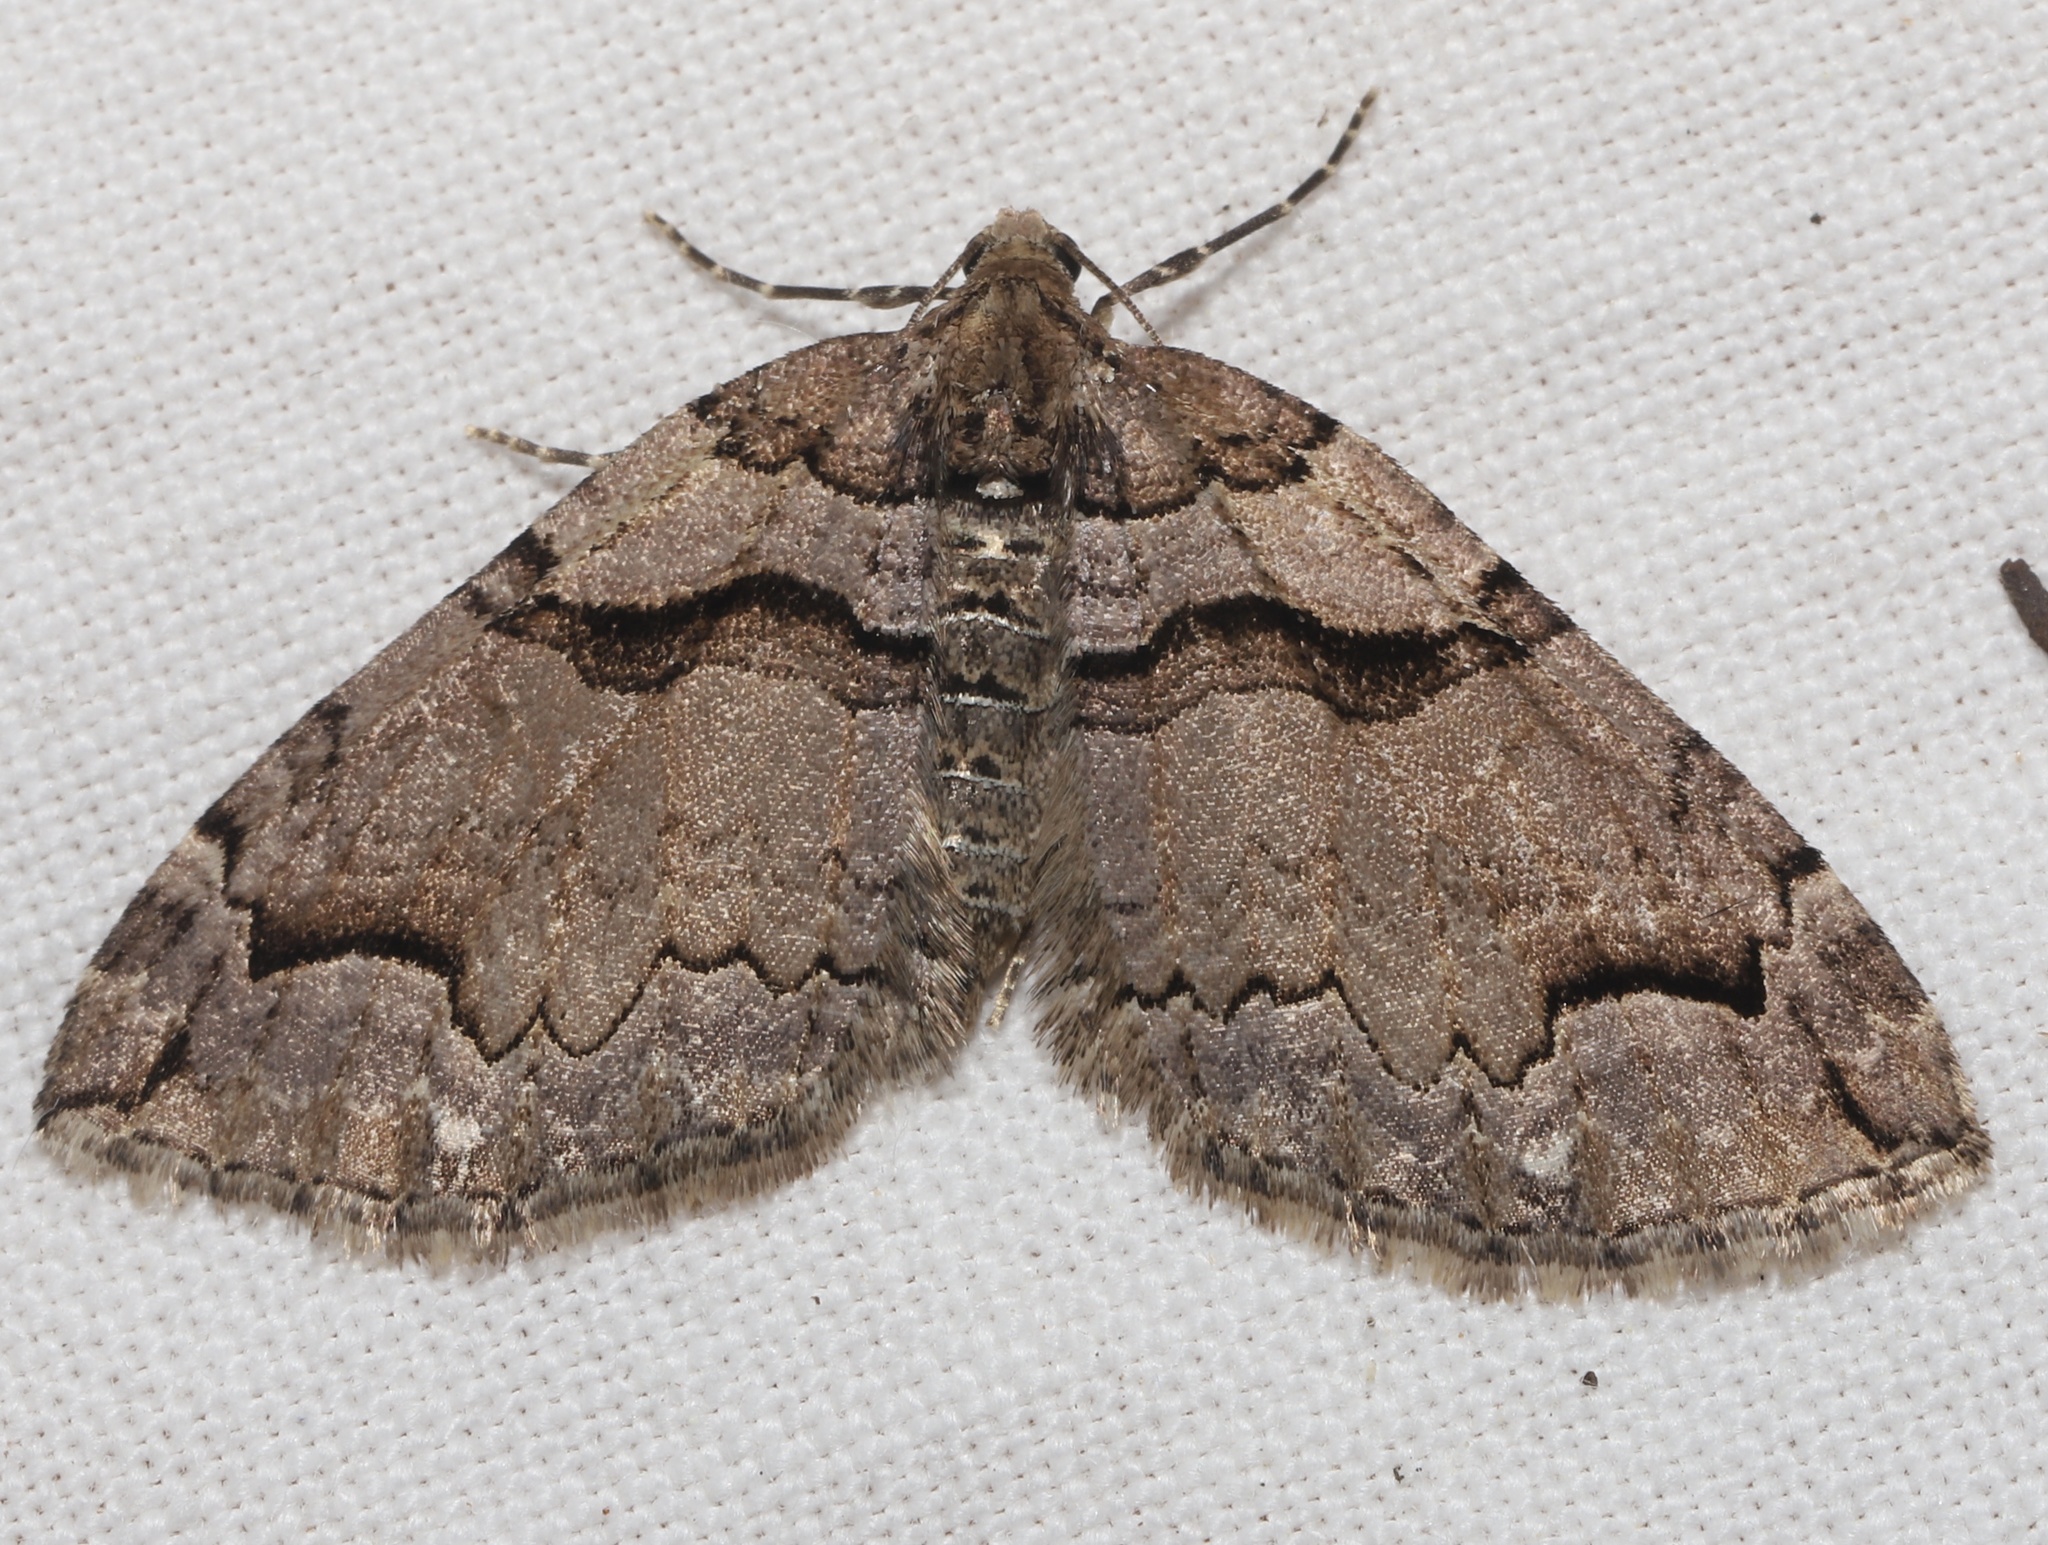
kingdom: Animalia
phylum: Arthropoda
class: Insecta
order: Lepidoptera
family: Geometridae
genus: Anticlea
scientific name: Anticlea vasiliata
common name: Variable carpet
